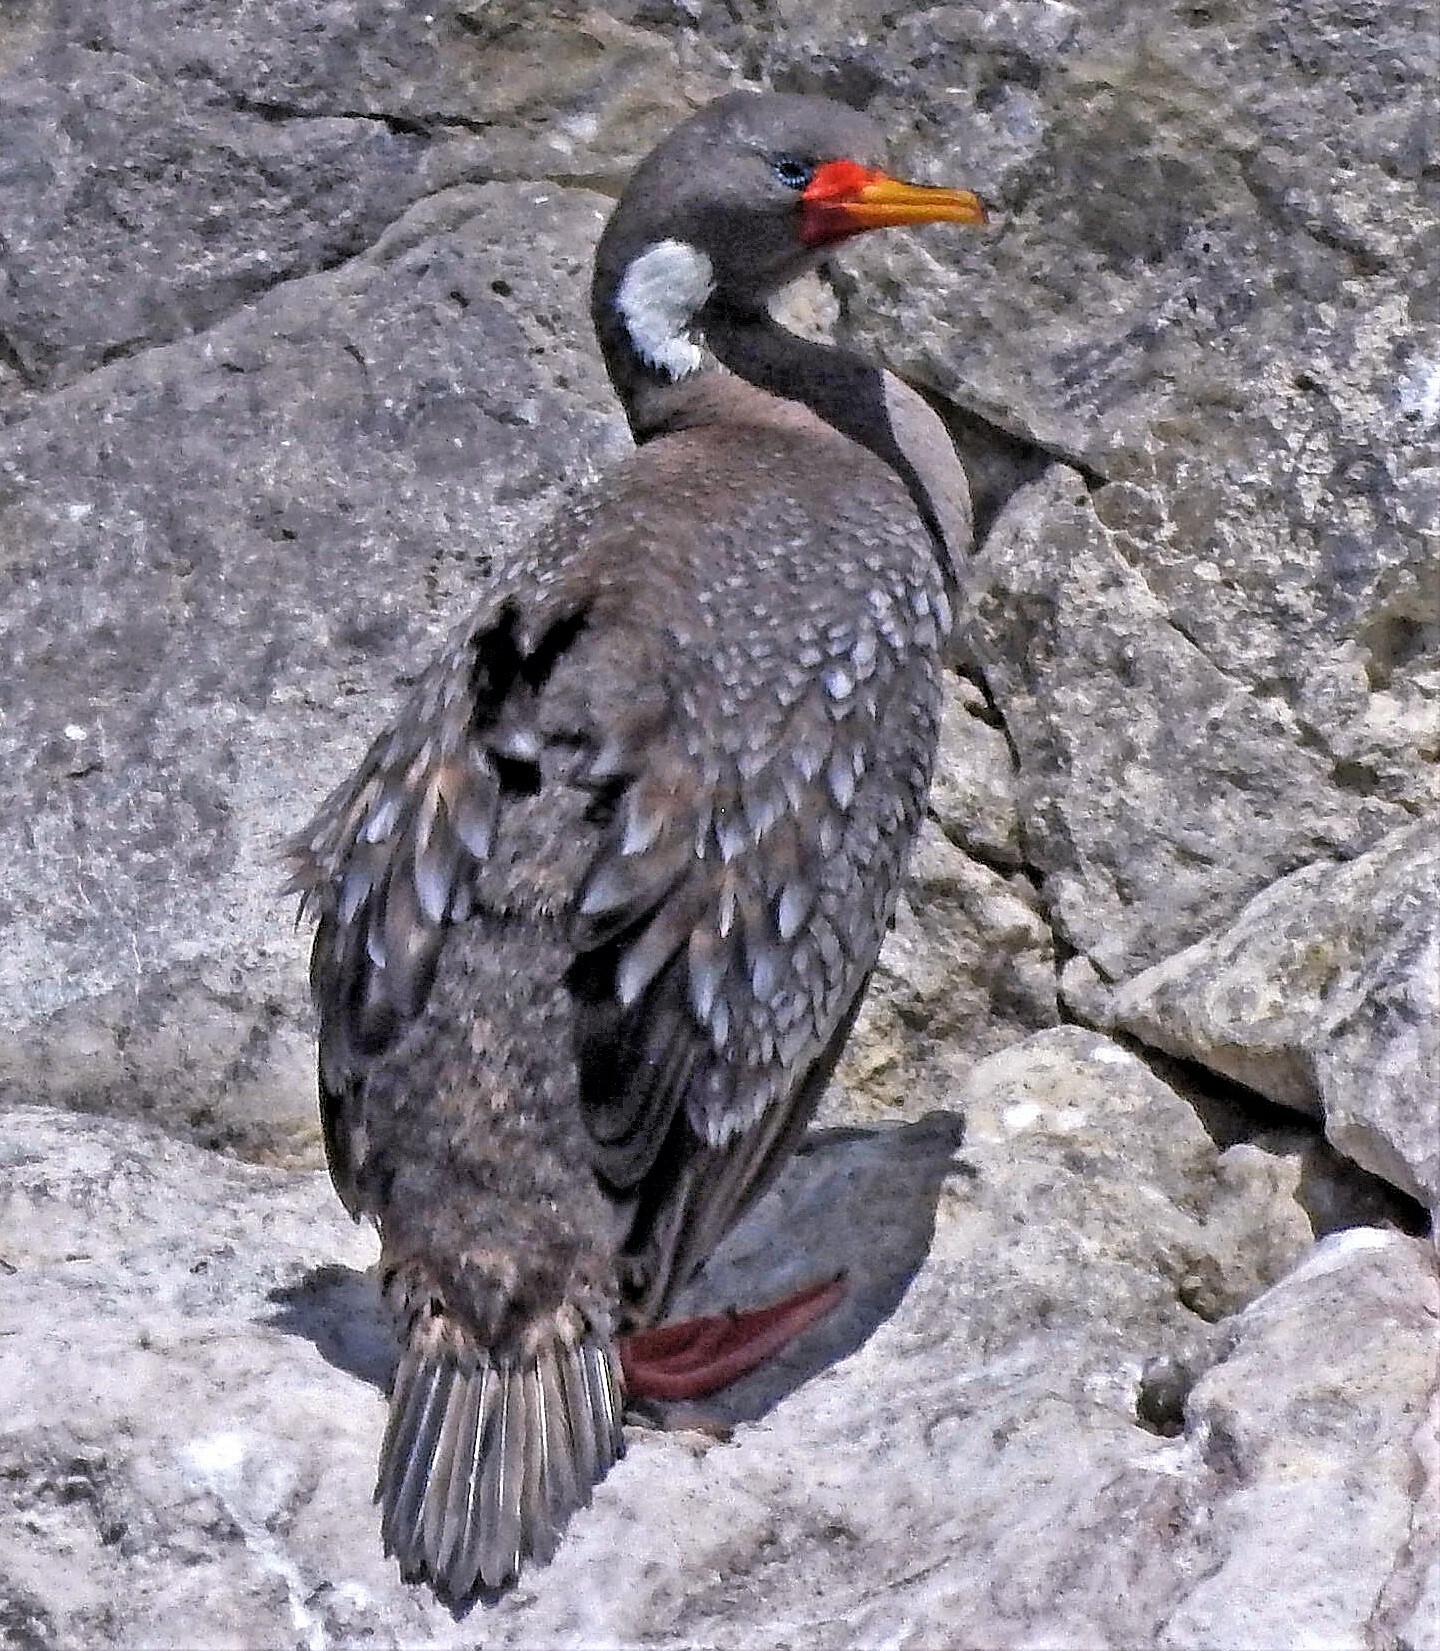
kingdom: Animalia
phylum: Chordata
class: Aves
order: Suliformes
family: Phalacrocoracidae
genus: Phalacrocorax
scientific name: Phalacrocorax gaimardi
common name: Red-legged cormorant
